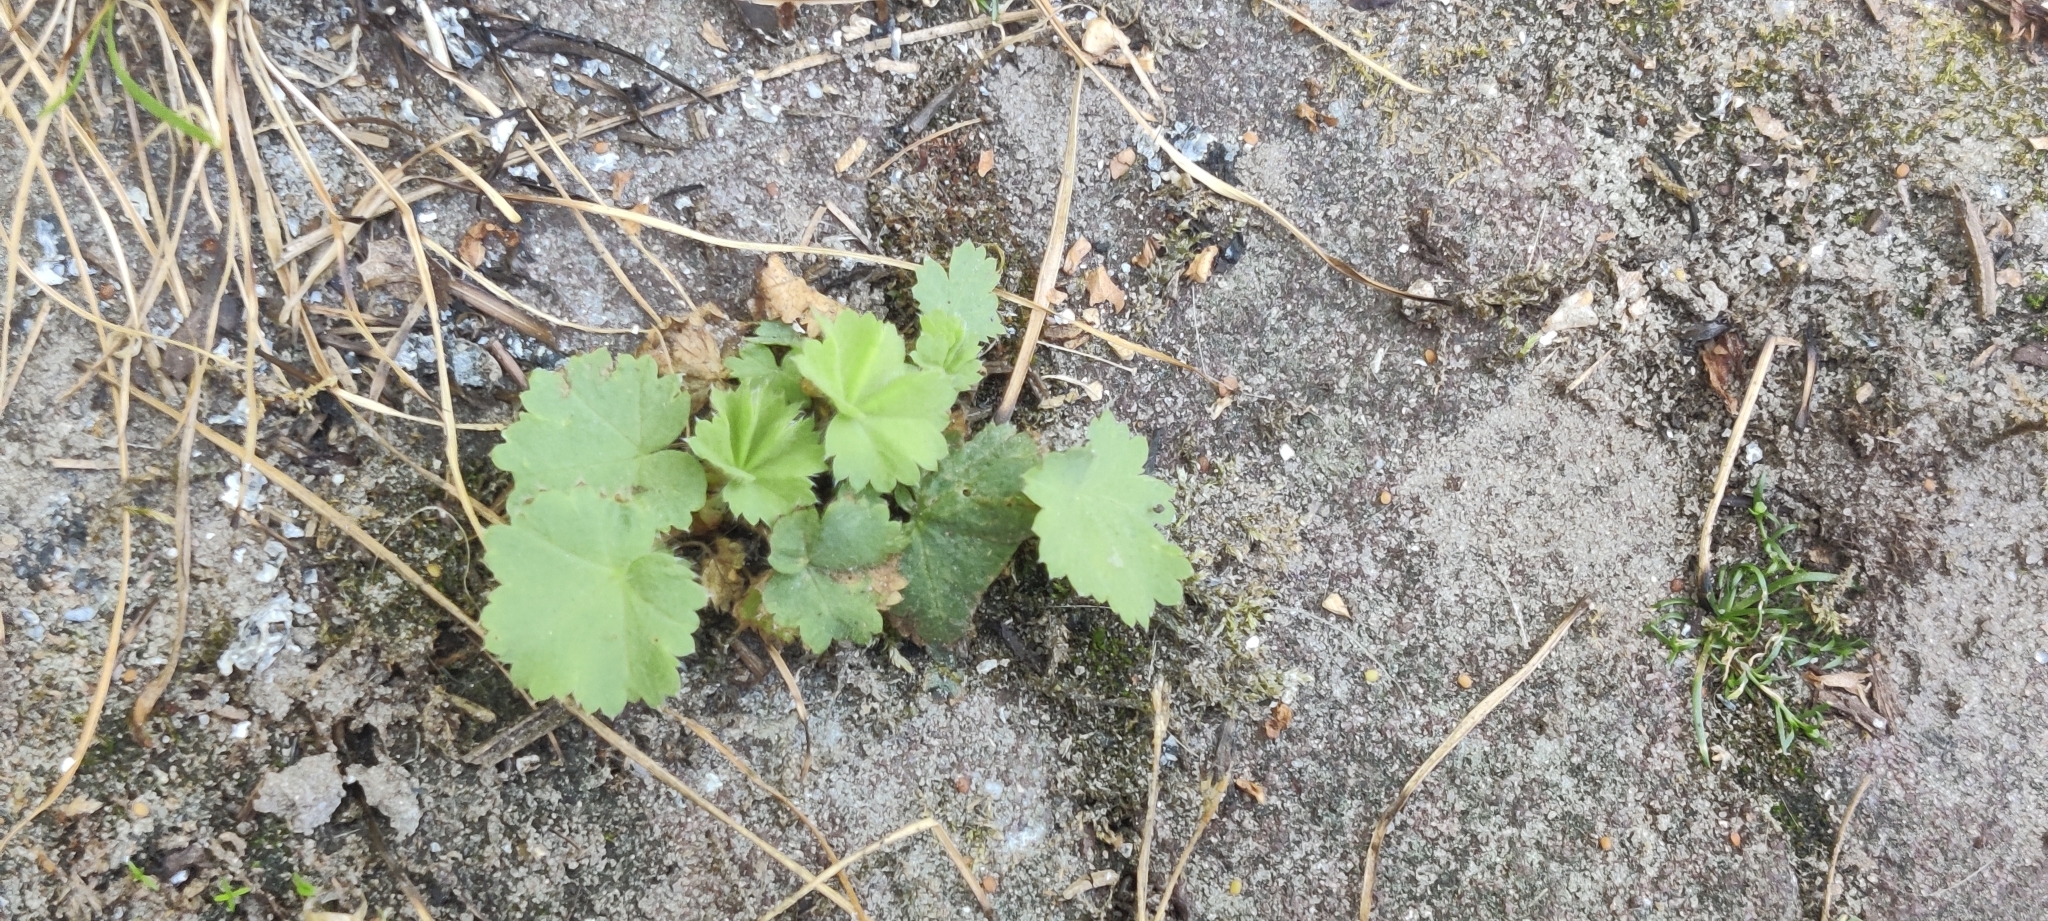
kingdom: Plantae
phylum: Tracheophyta
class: Magnoliopsida
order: Rosales
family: Rosaceae
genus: Alchemilla
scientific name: Alchemilla mollis
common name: Lady's-mantle
